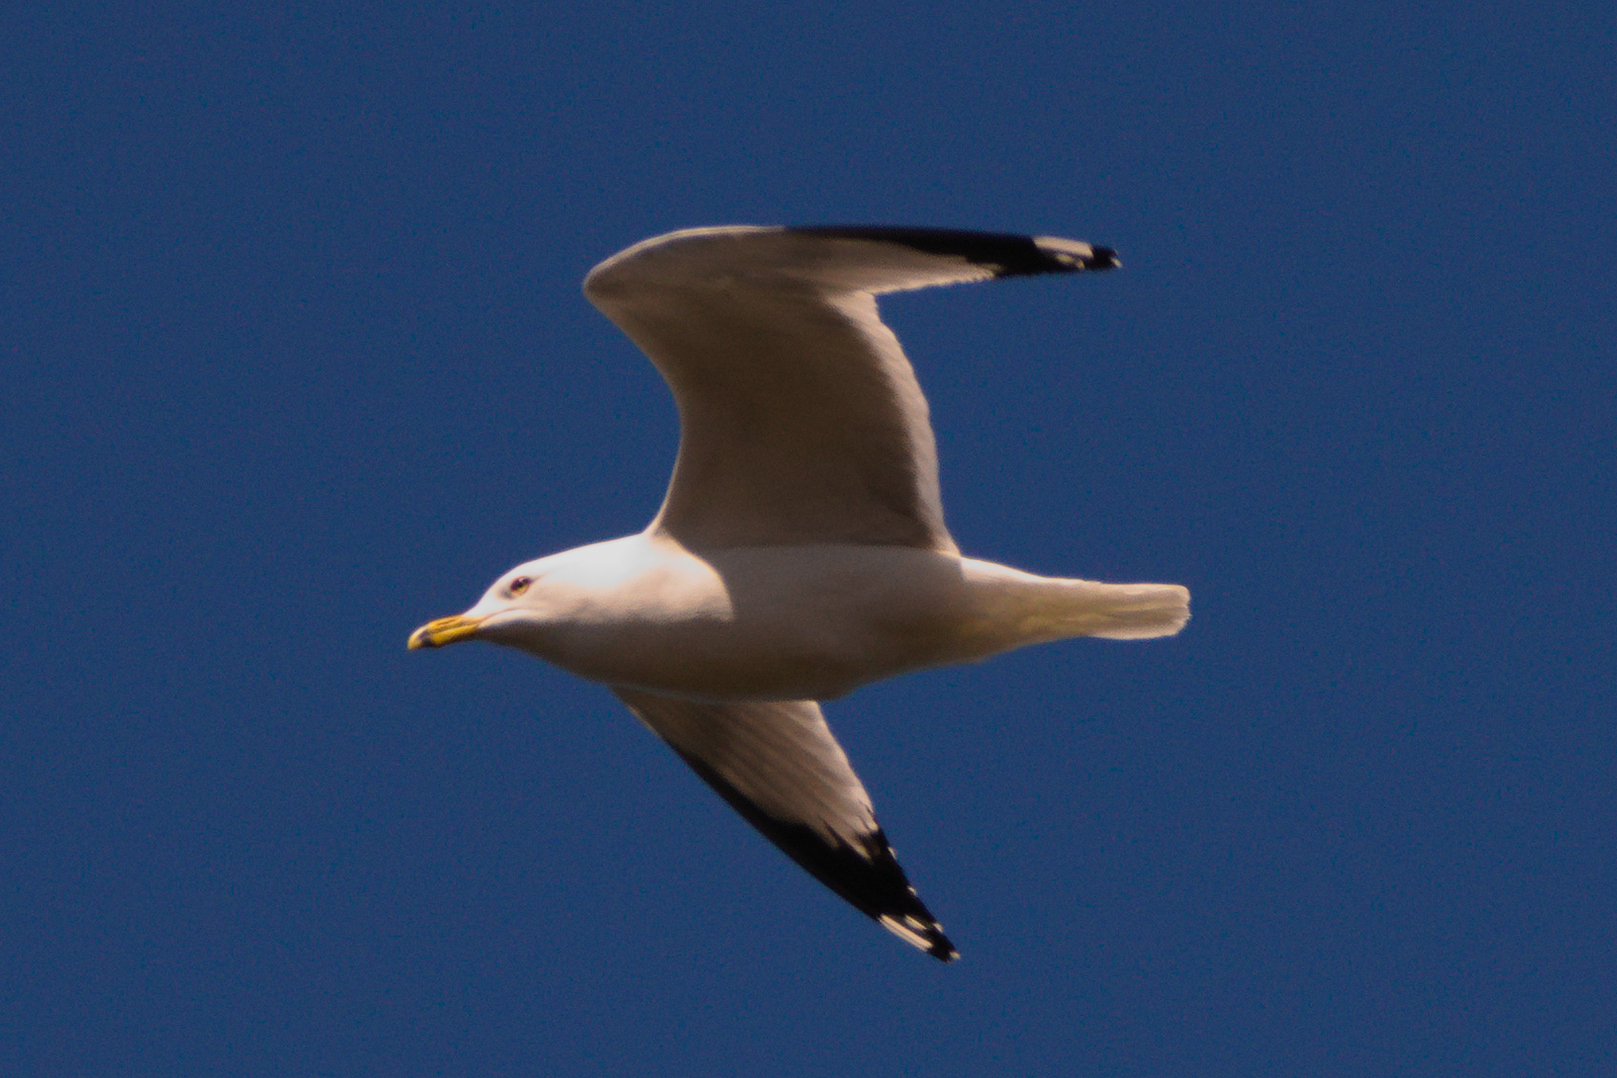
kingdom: Animalia
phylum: Chordata
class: Aves
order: Charadriiformes
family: Laridae
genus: Larus
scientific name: Larus delawarensis
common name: Ring-billed gull
